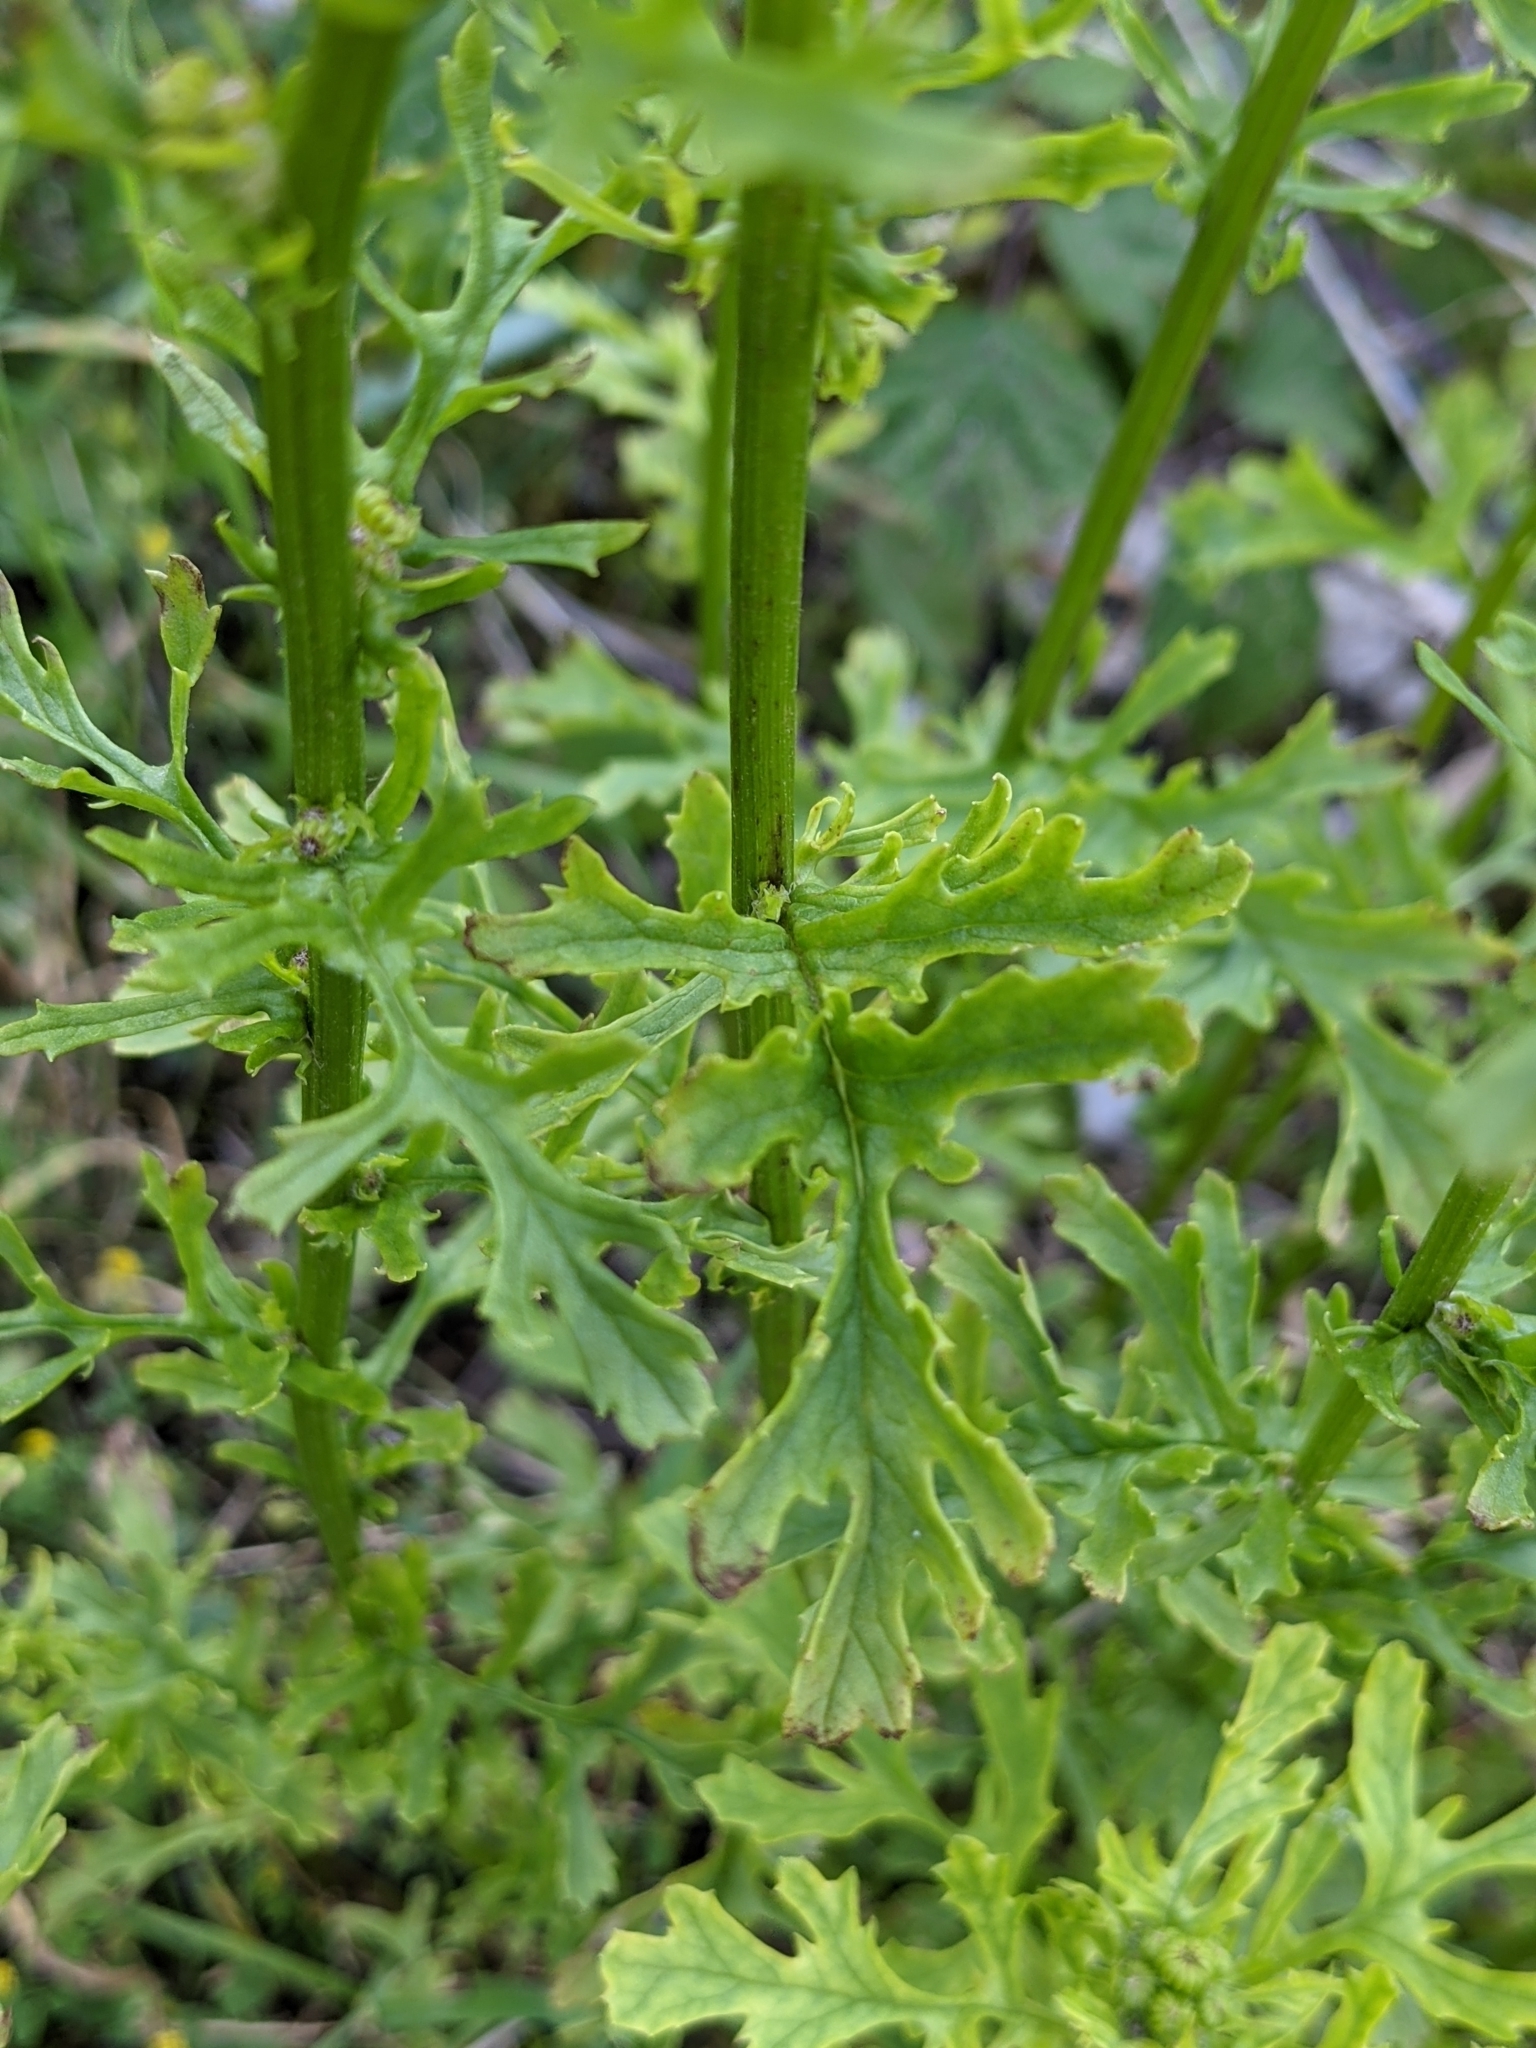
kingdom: Plantae
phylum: Tracheophyta
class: Magnoliopsida
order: Asterales
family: Asteraceae
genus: Jacobaea
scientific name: Jacobaea vulgaris
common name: Stinking willie
